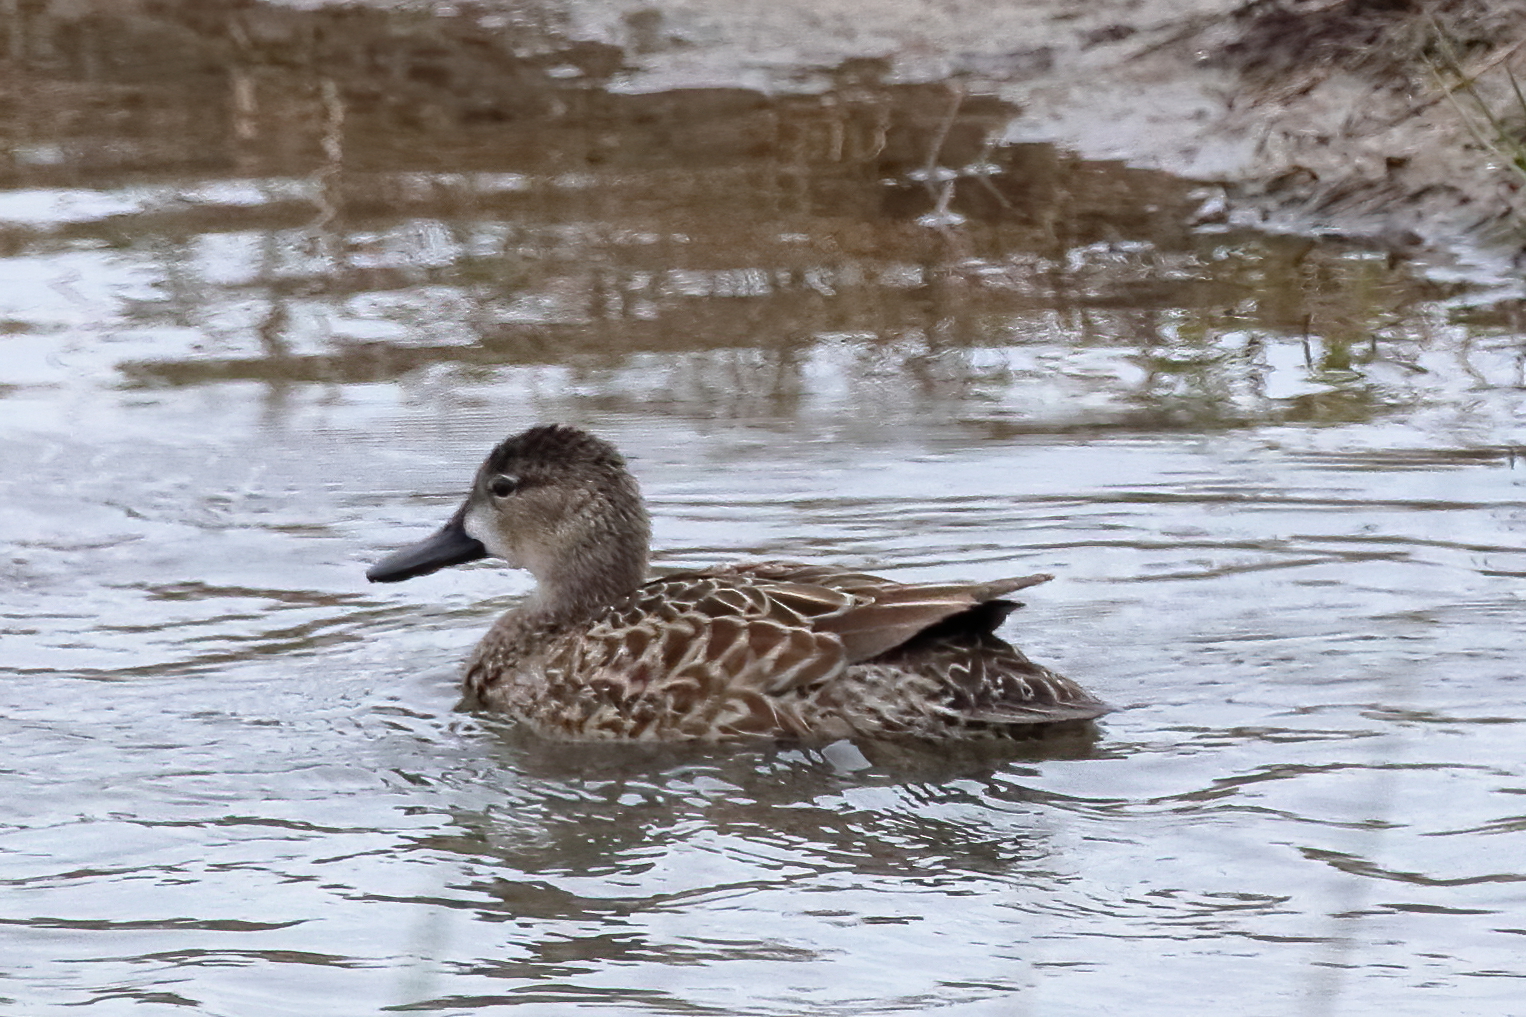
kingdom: Animalia
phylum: Chordata
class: Aves
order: Anseriformes
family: Anatidae
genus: Spatula
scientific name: Spatula discors
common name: Blue-winged teal
